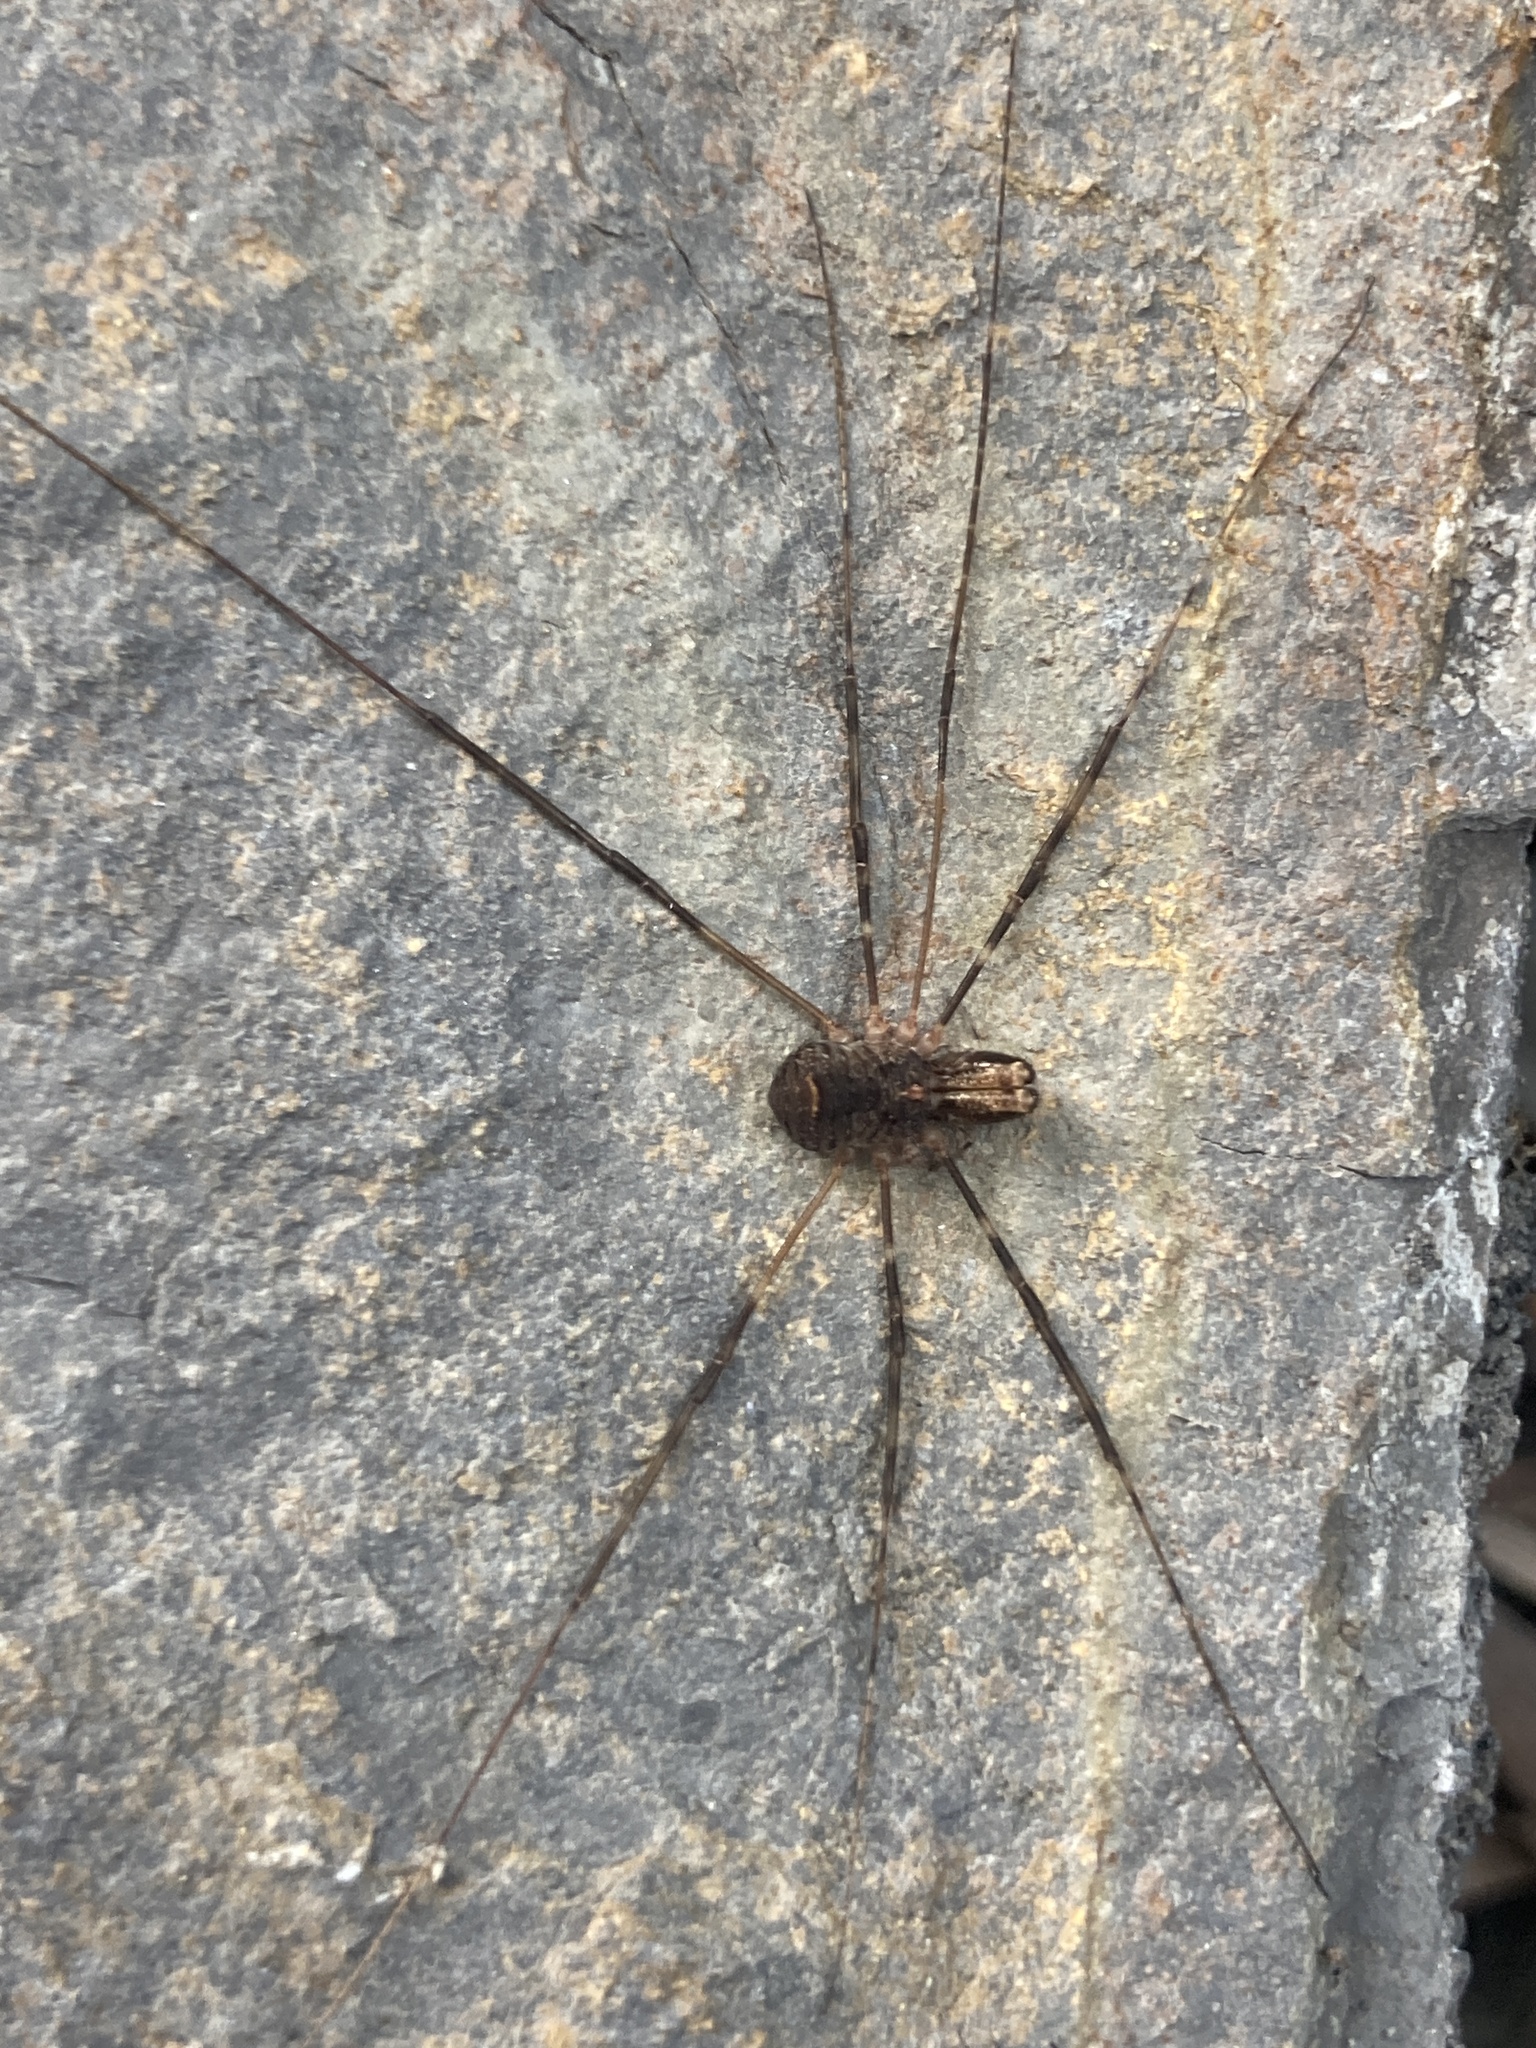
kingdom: Animalia
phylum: Arthropoda
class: Arachnida
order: Opiliones
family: Neopilionidae
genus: Megalopsalis
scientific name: Megalopsalis caeruleomontium
